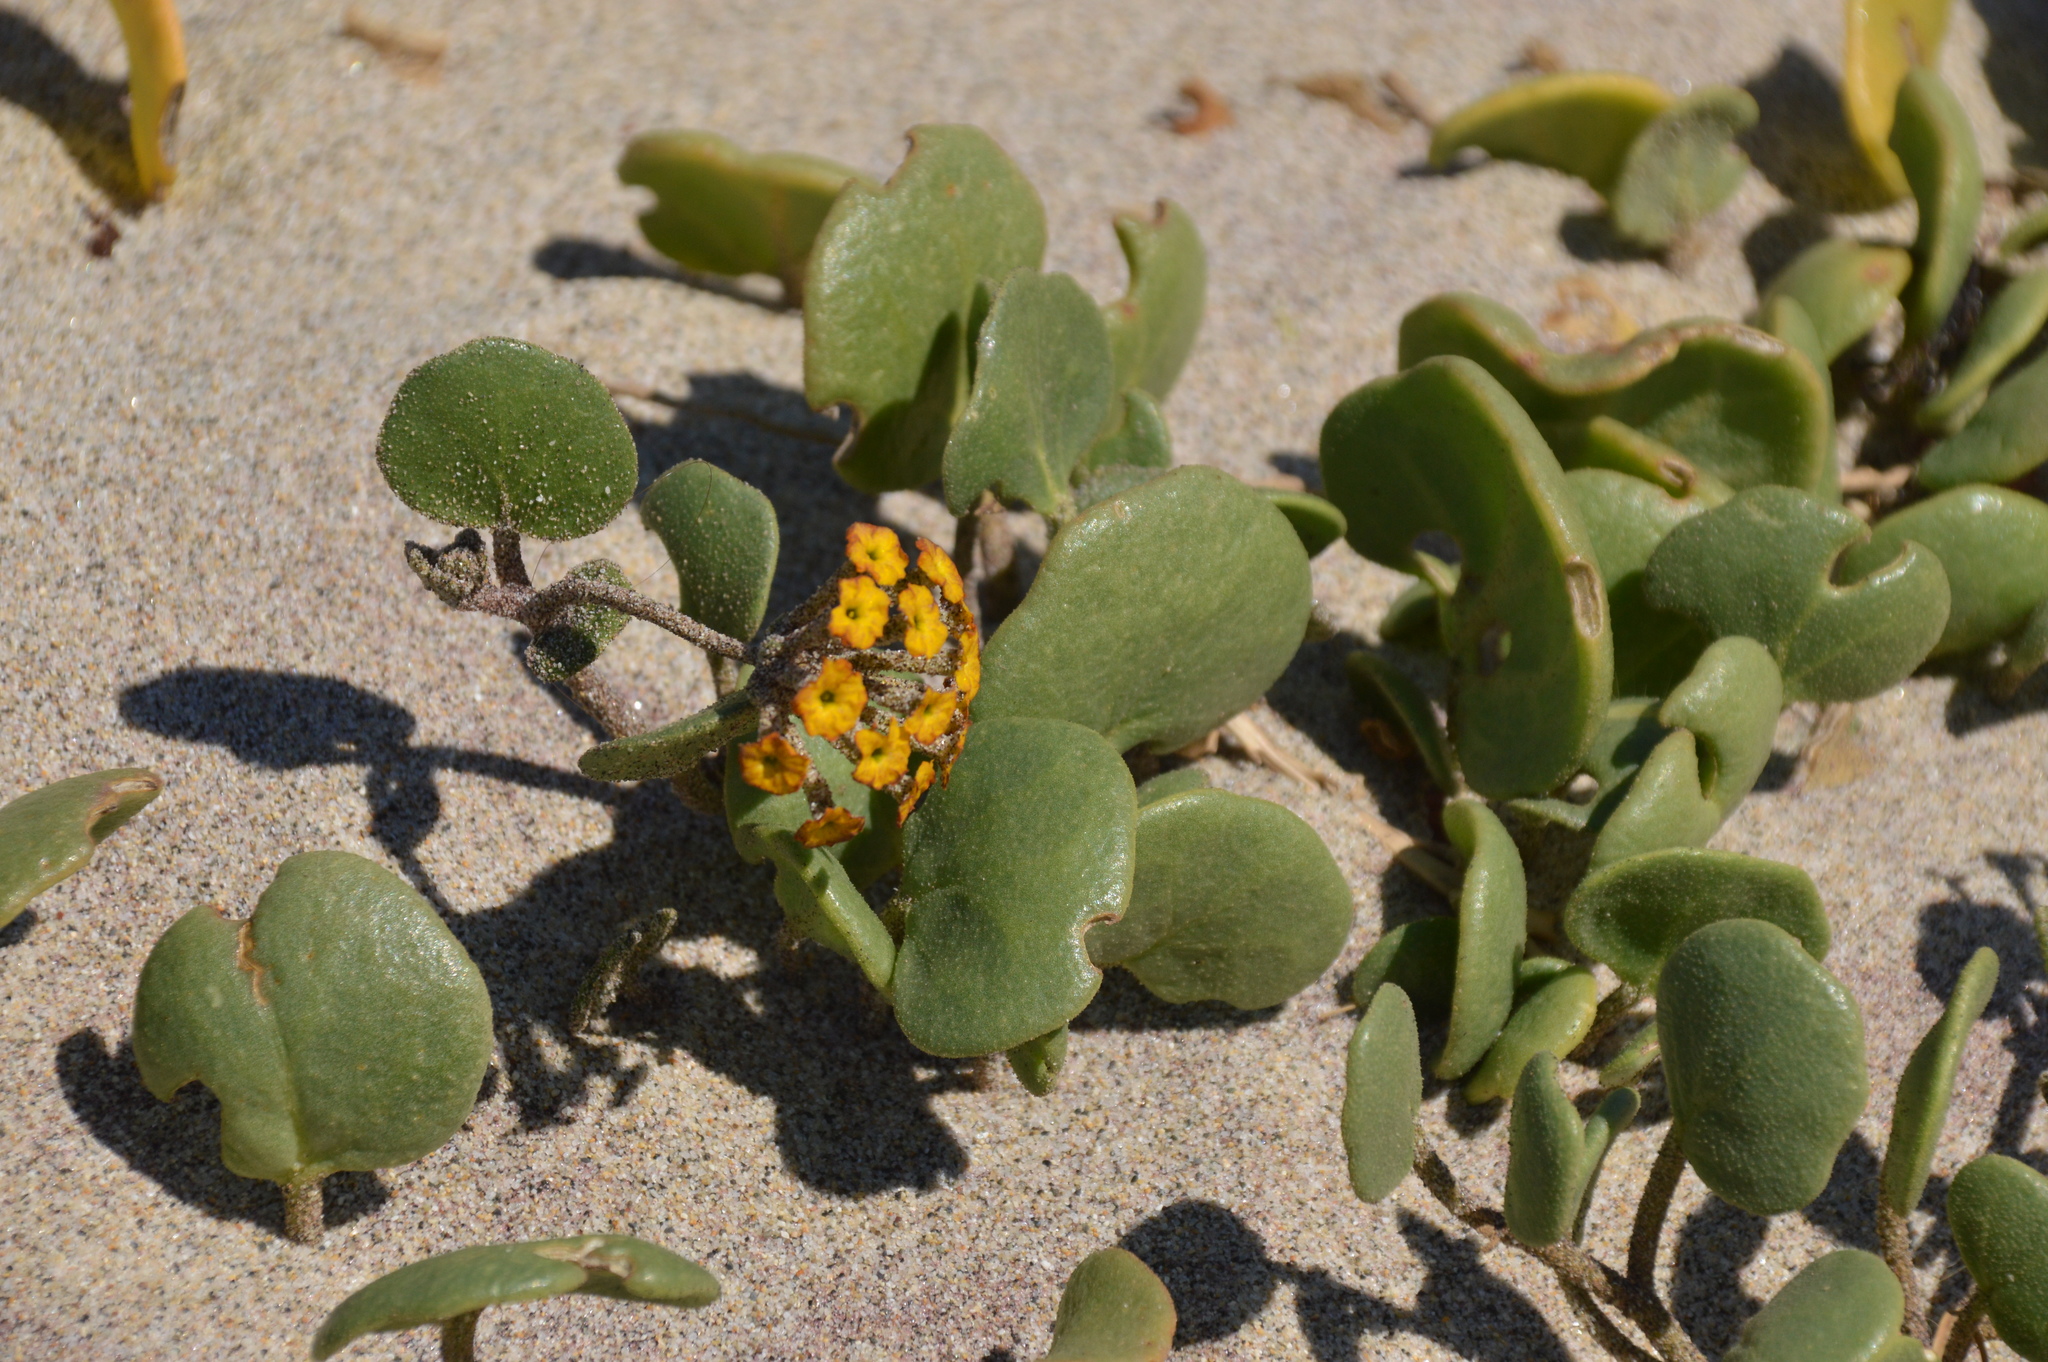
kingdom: Plantae
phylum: Tracheophyta
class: Magnoliopsida
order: Caryophyllales
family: Nyctaginaceae
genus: Abronia
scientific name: Abronia latifolia
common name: Yellow sand-verbena
